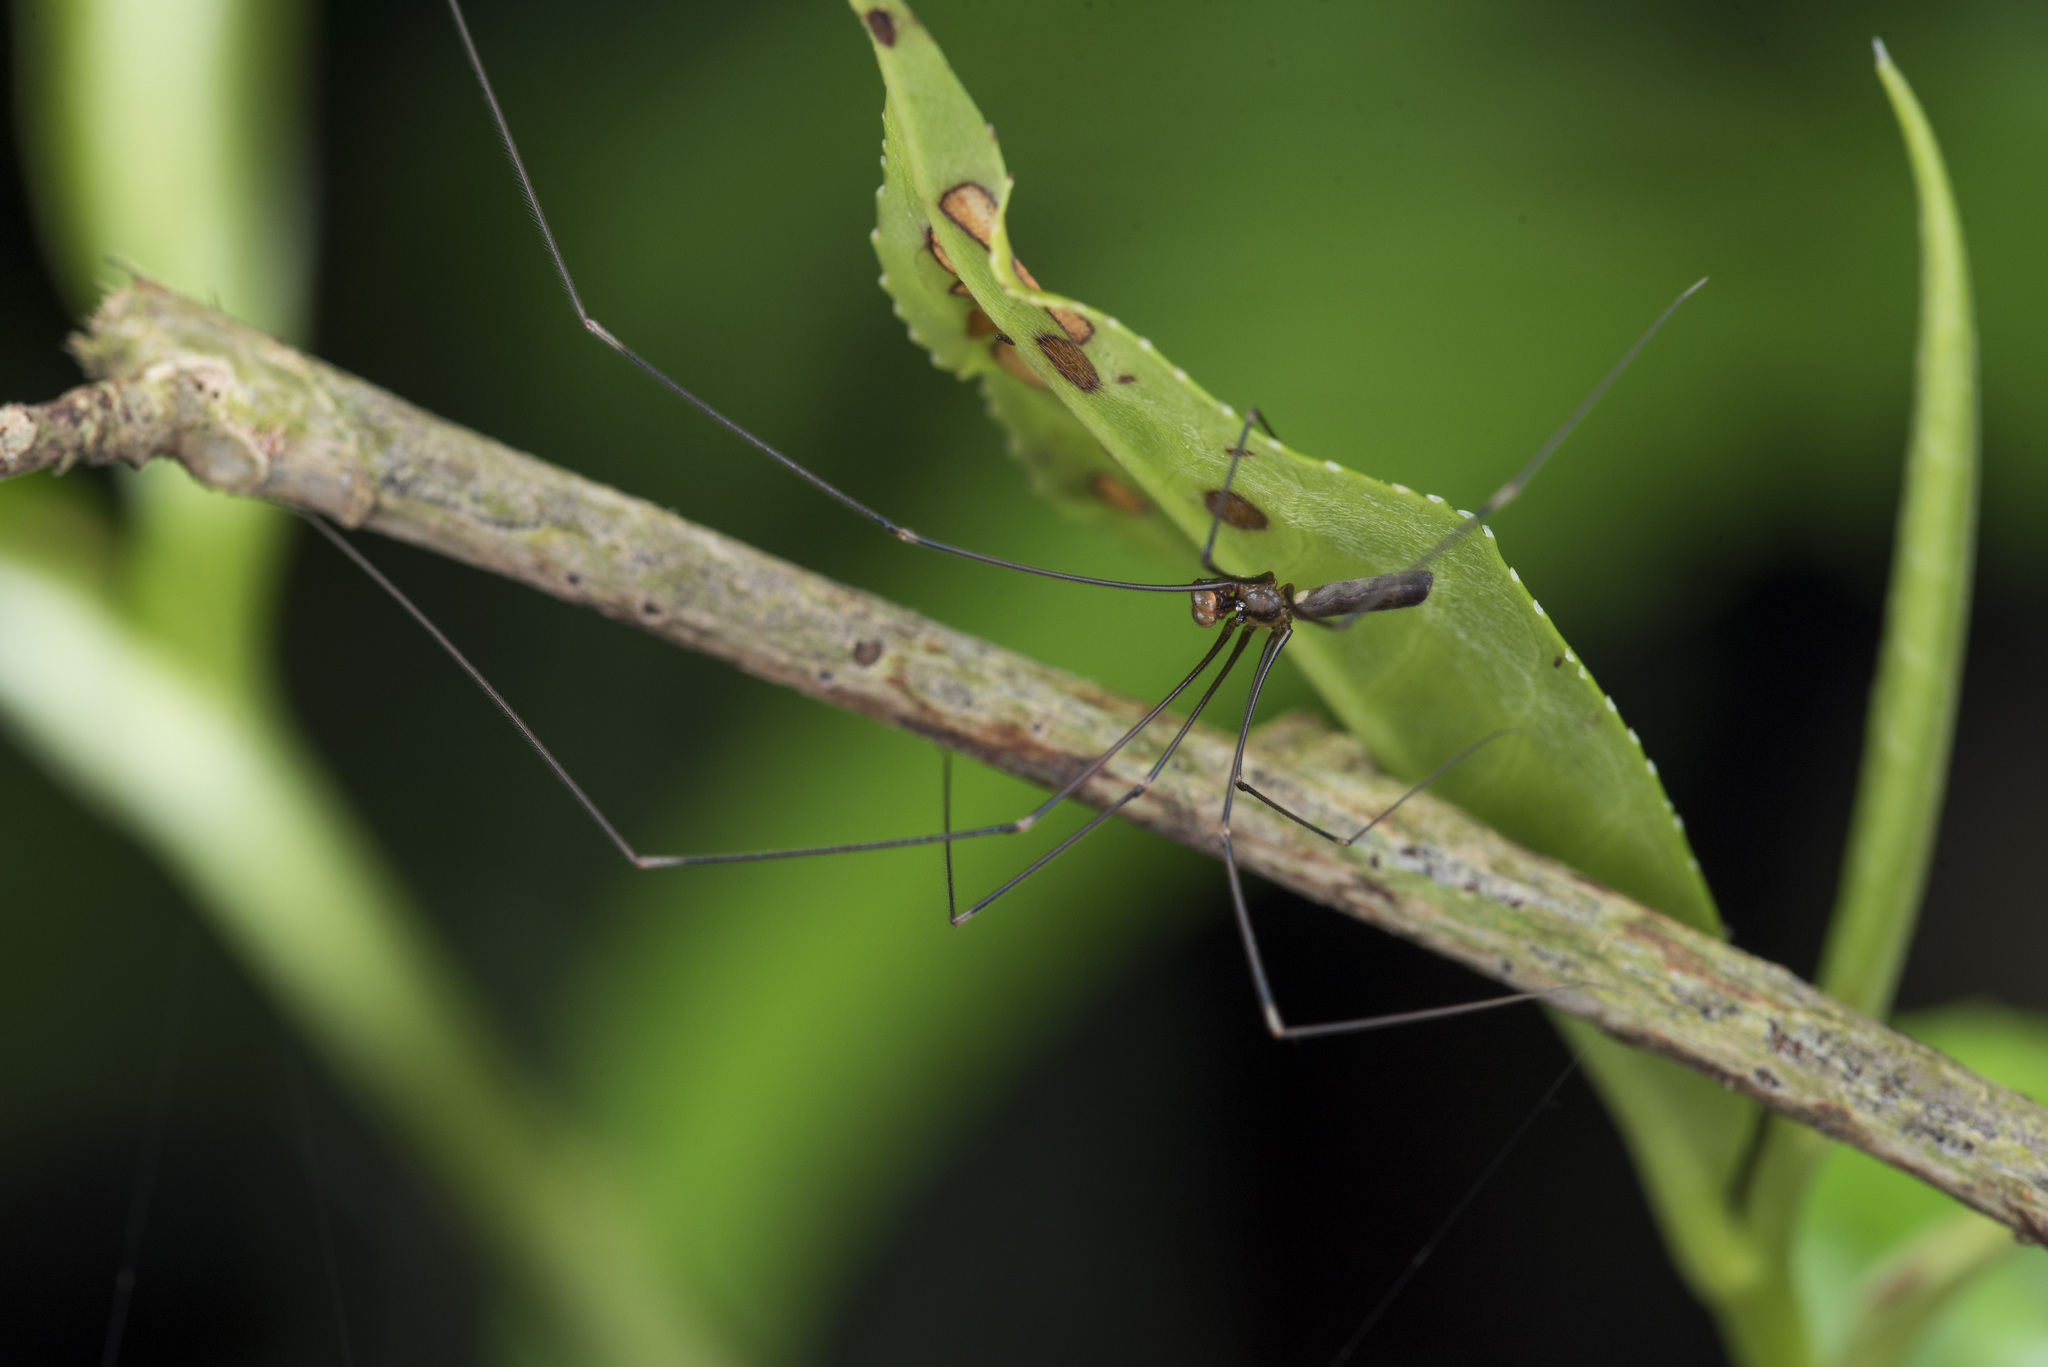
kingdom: Animalia
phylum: Arthropoda
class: Arachnida
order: Araneae
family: Pholcidae
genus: Uthina
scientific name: Uthina luzonica
